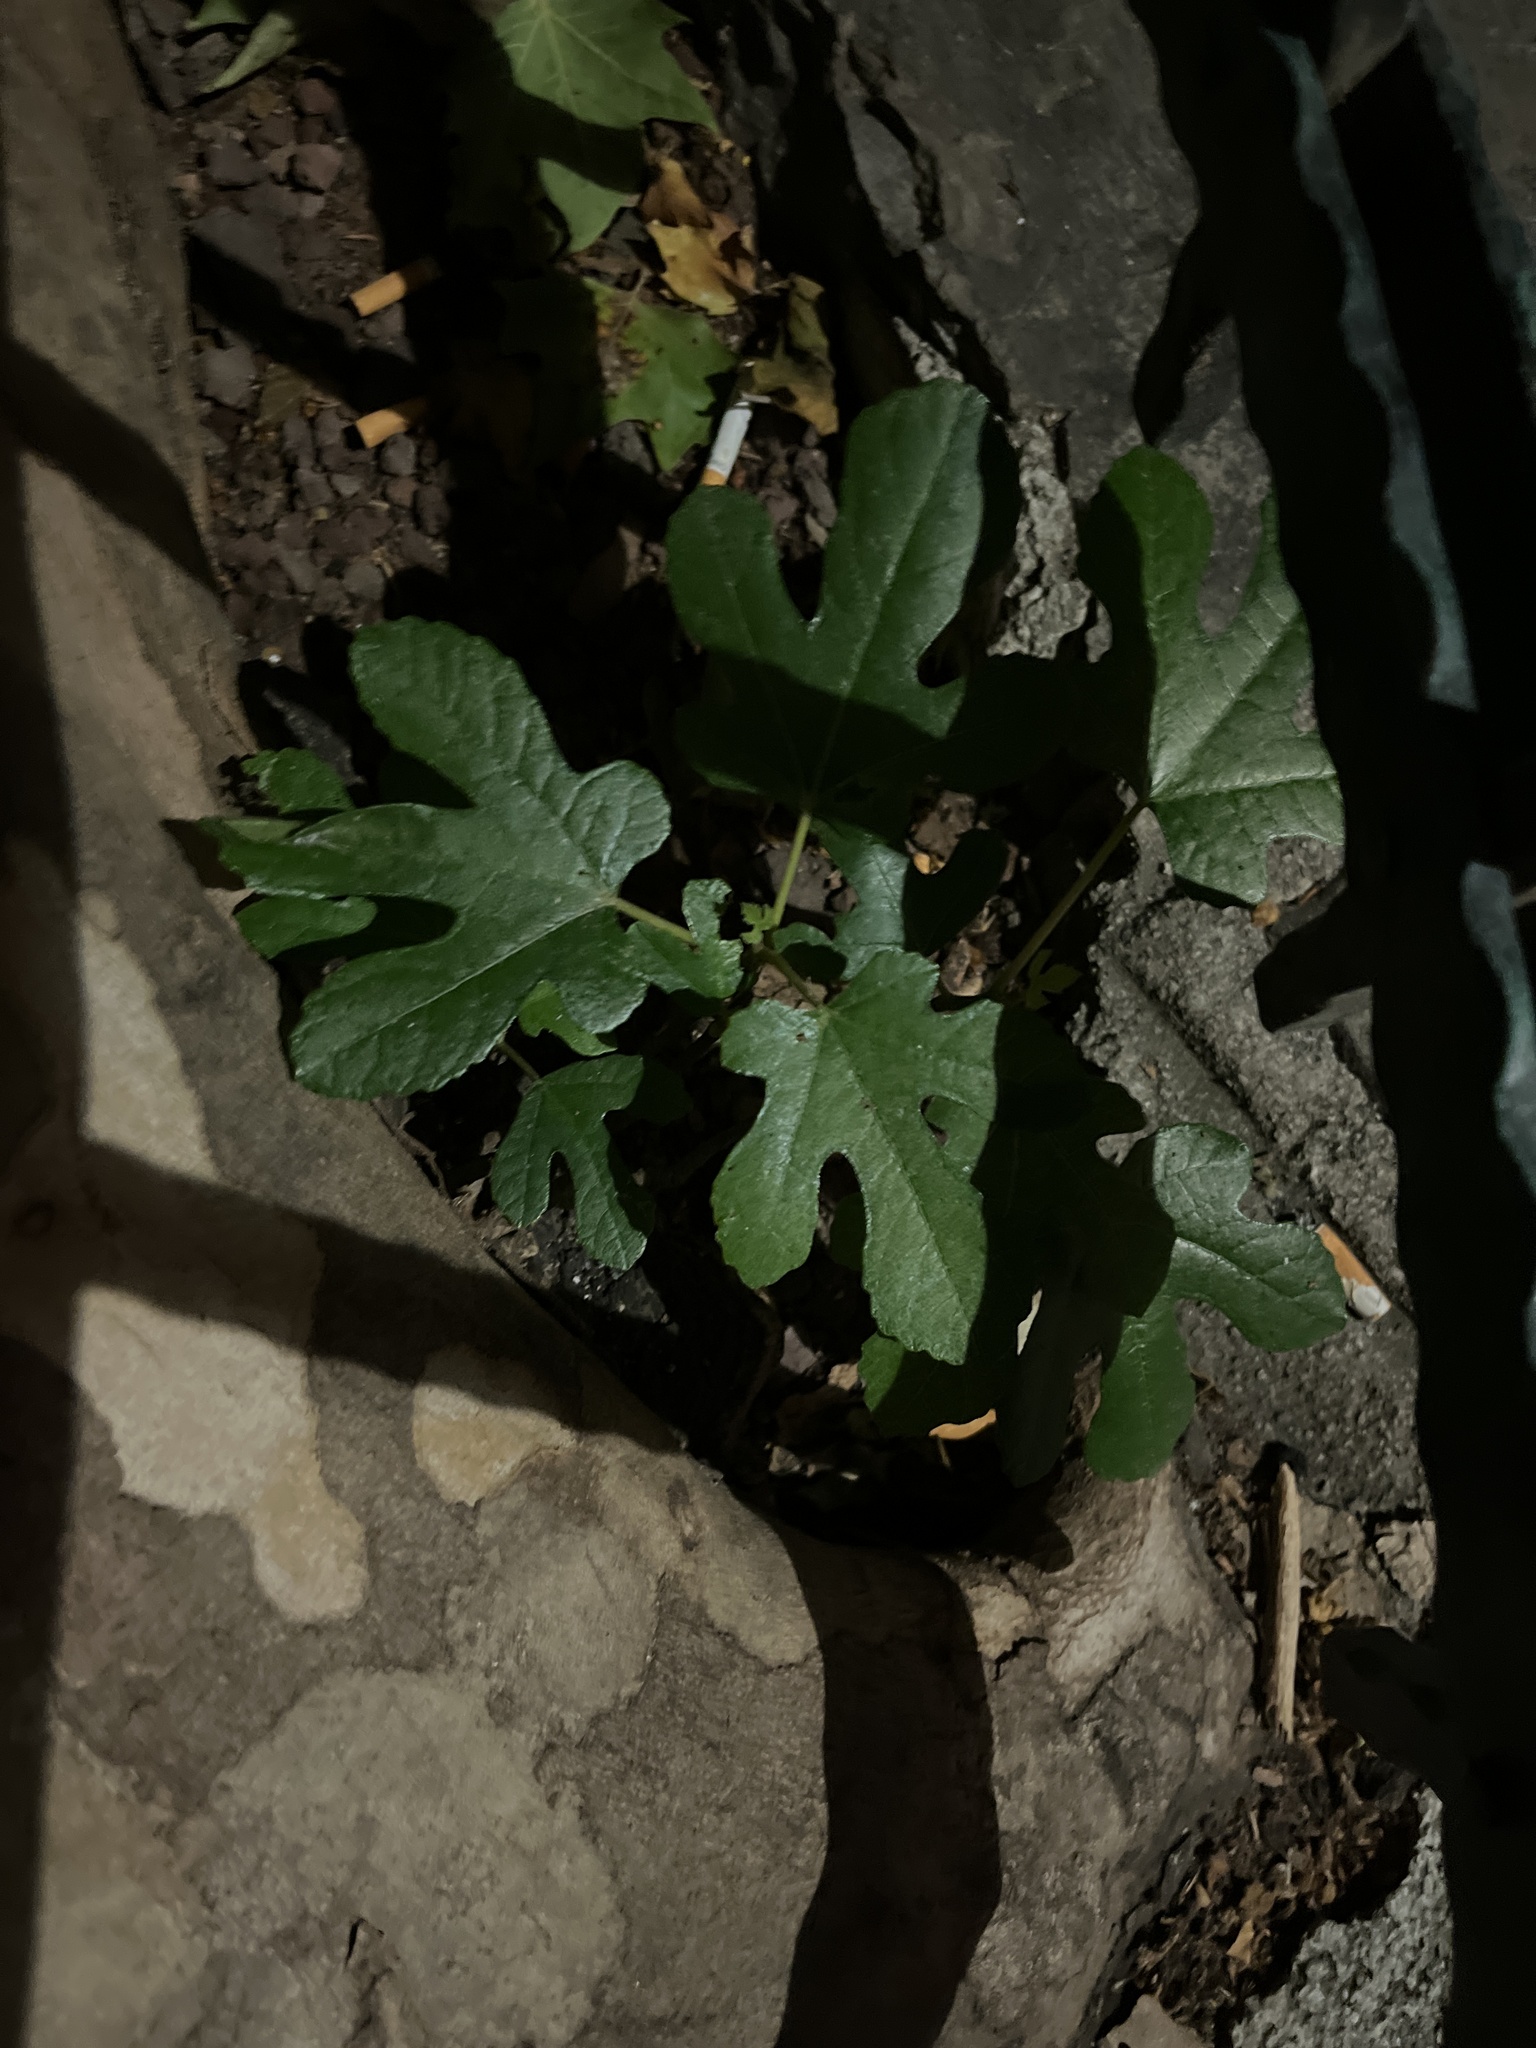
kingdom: Plantae
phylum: Tracheophyta
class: Magnoliopsida
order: Rosales
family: Moraceae
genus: Ficus
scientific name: Ficus carica
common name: Fig
